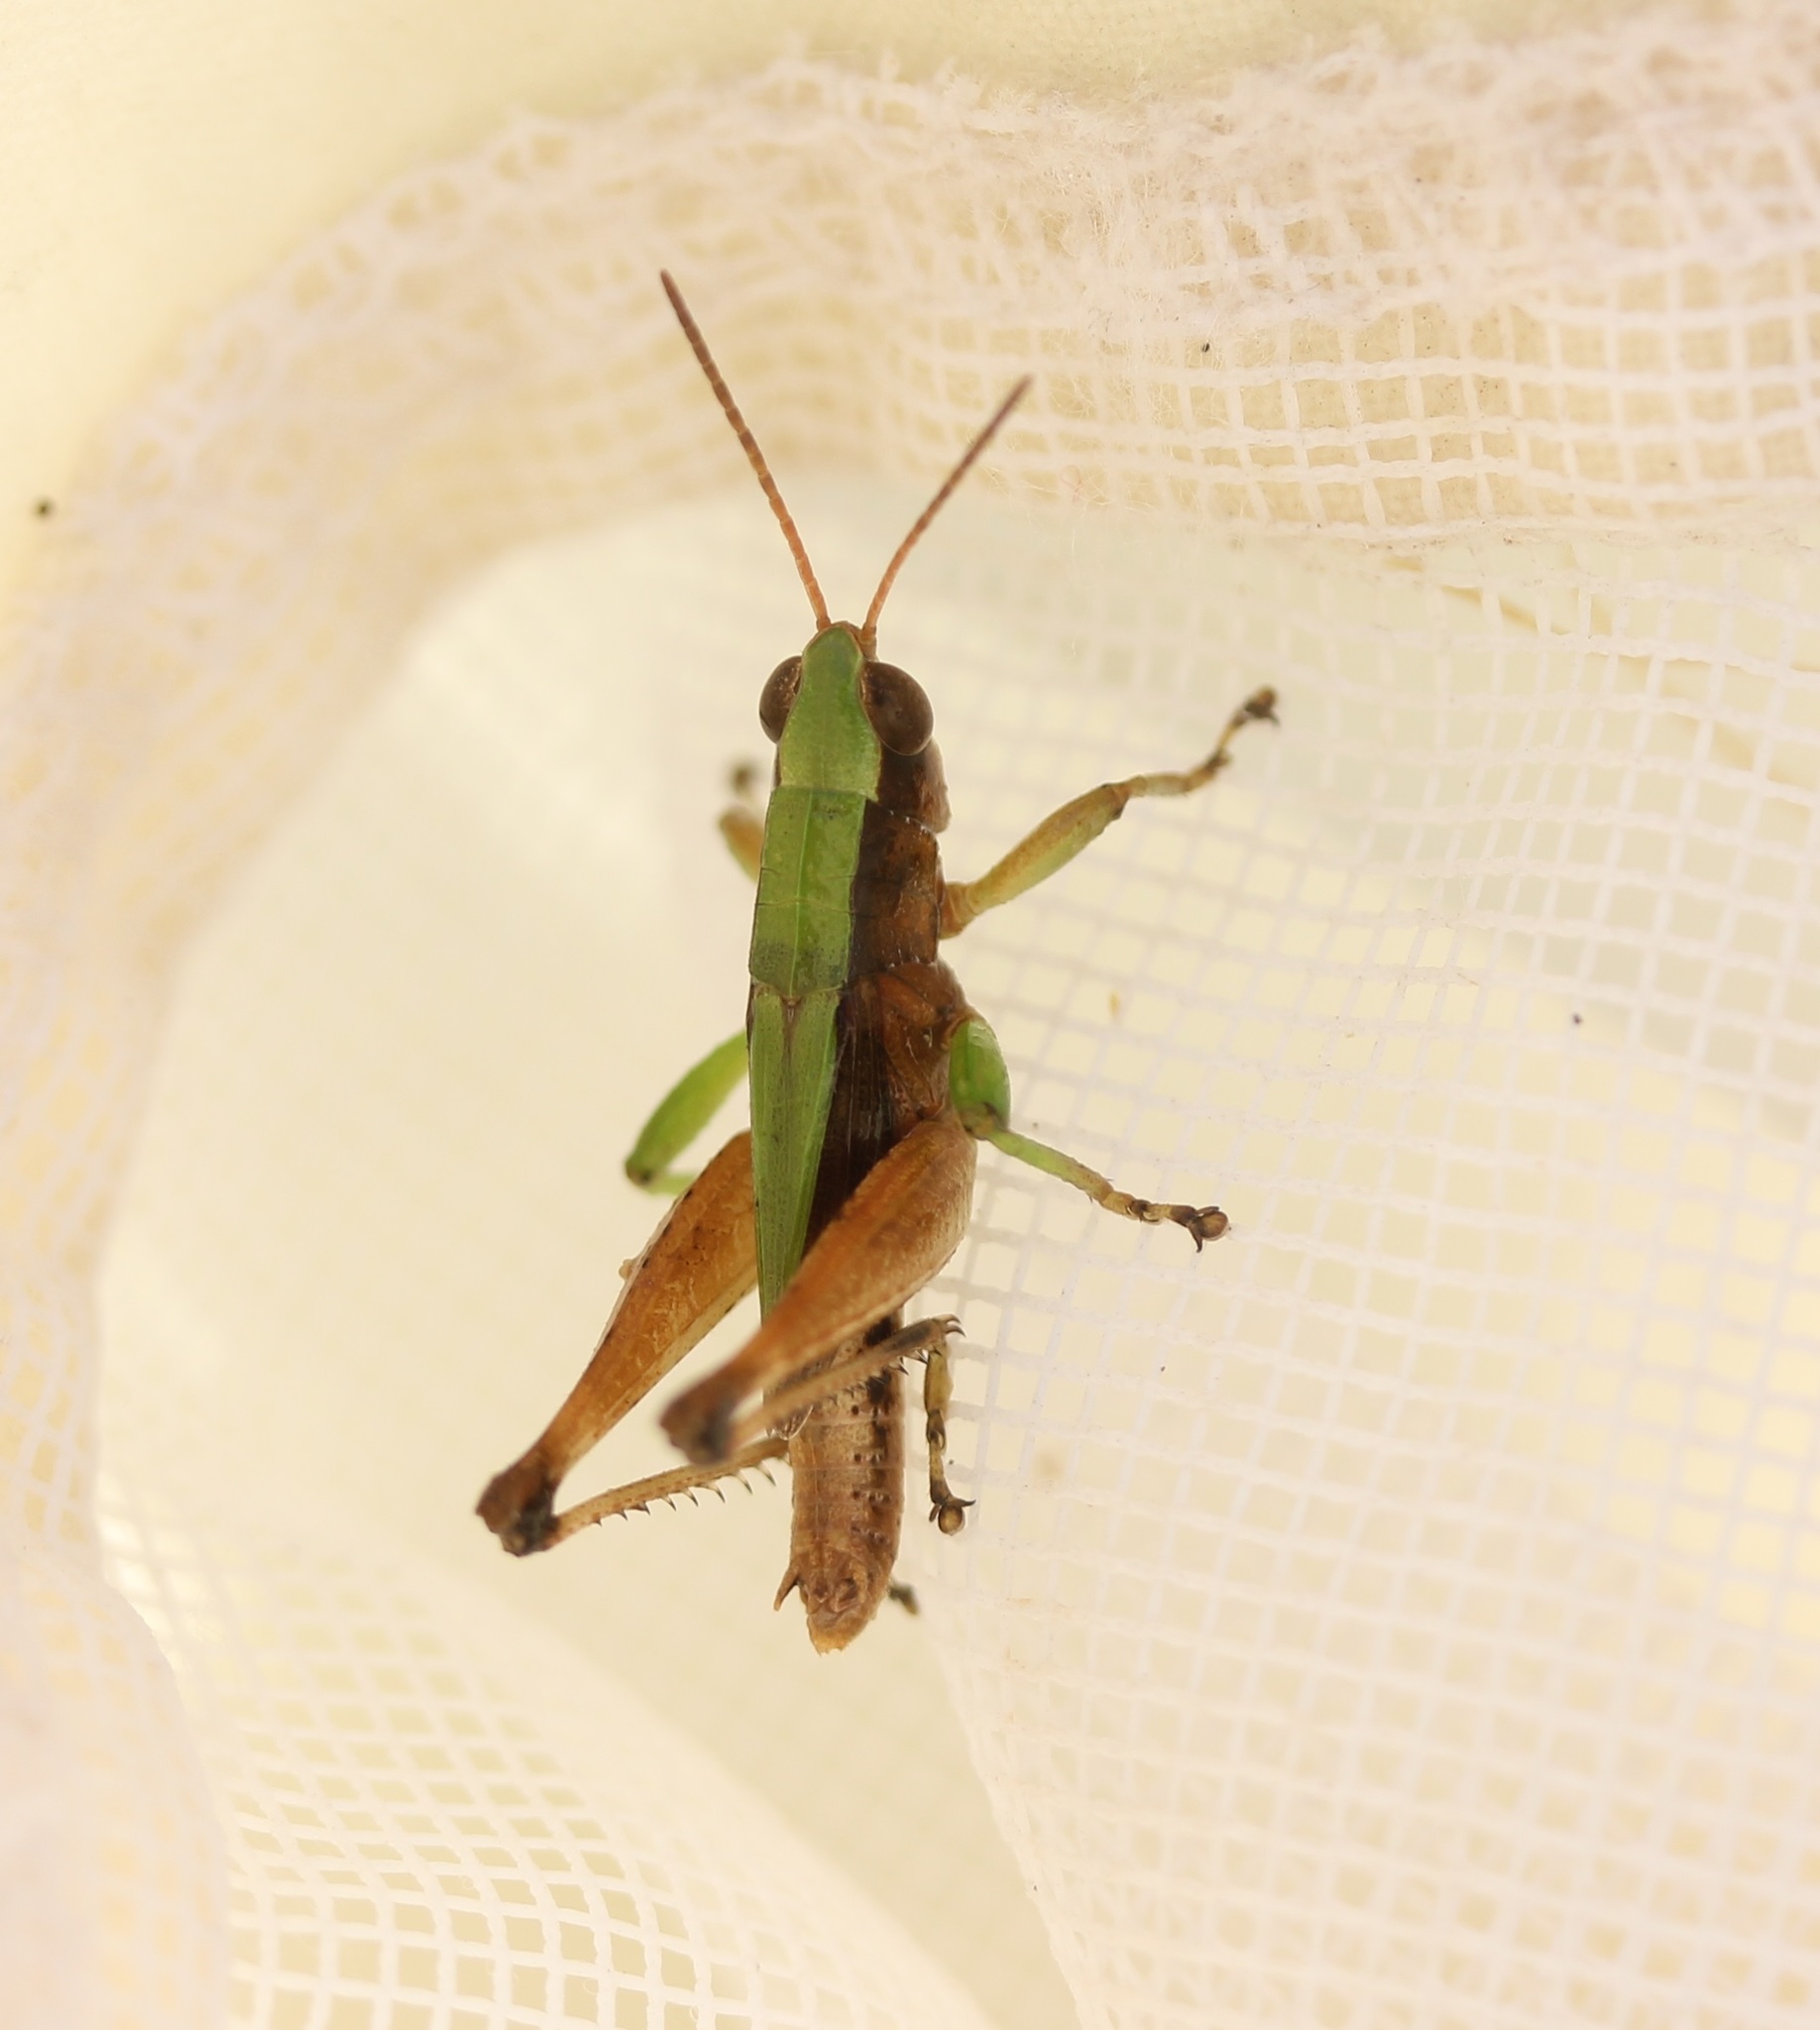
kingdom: Animalia
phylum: Arthropoda
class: Insecta
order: Orthoptera
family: Acrididae
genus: Dichromorpha
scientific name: Dichromorpha viridis
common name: Short-winged green grasshopper
